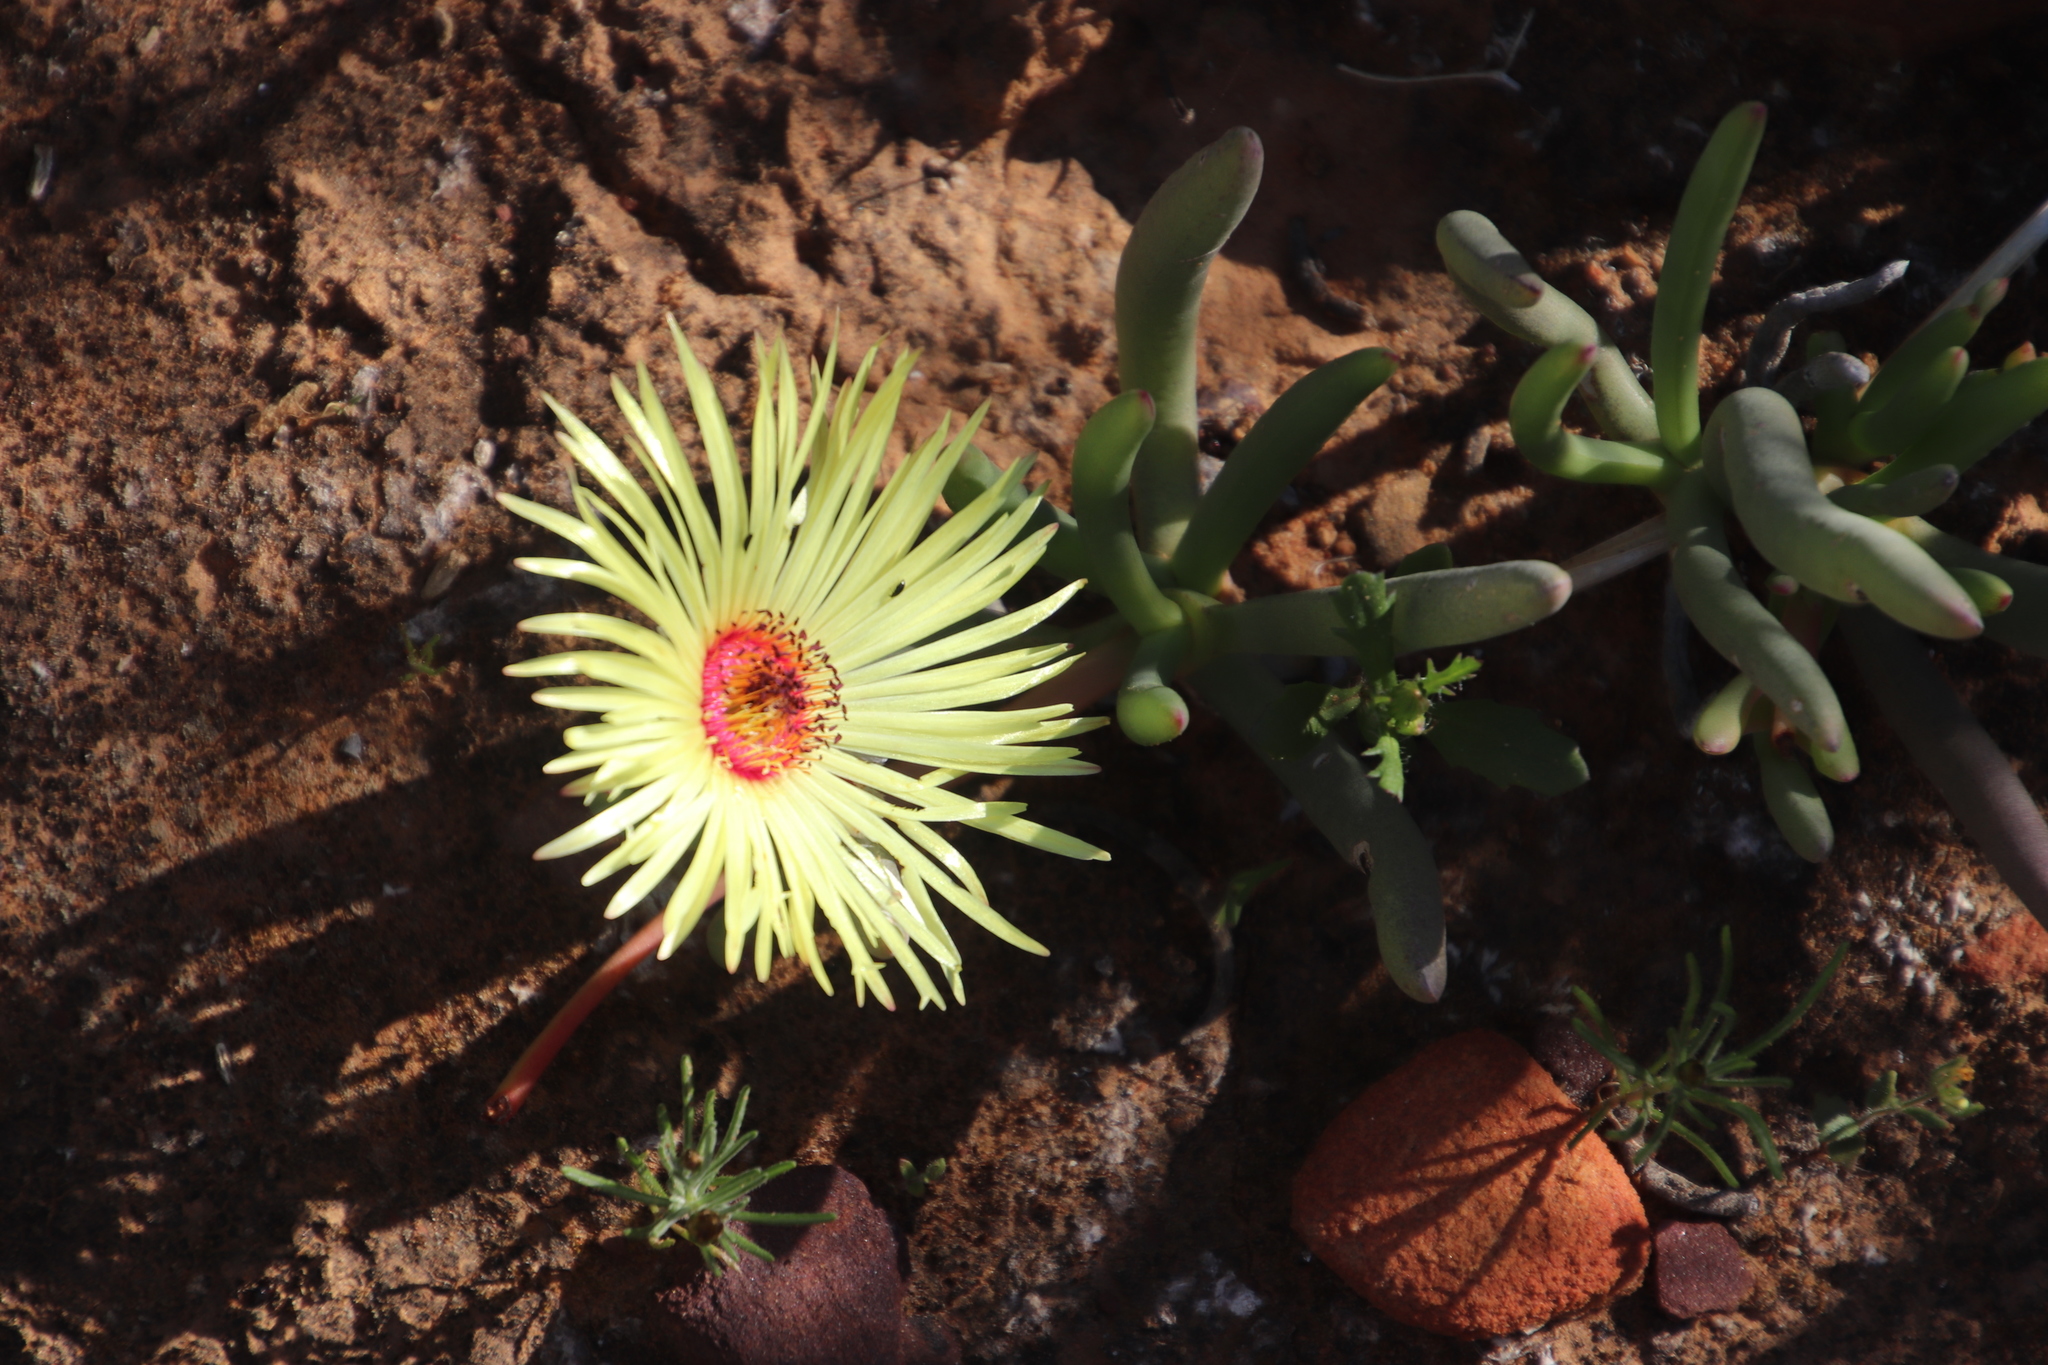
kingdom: Plantae
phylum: Tracheophyta
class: Magnoliopsida
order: Caryophyllales
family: Aizoaceae
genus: Cephalophyllum
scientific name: Cephalophyllum pillansii
